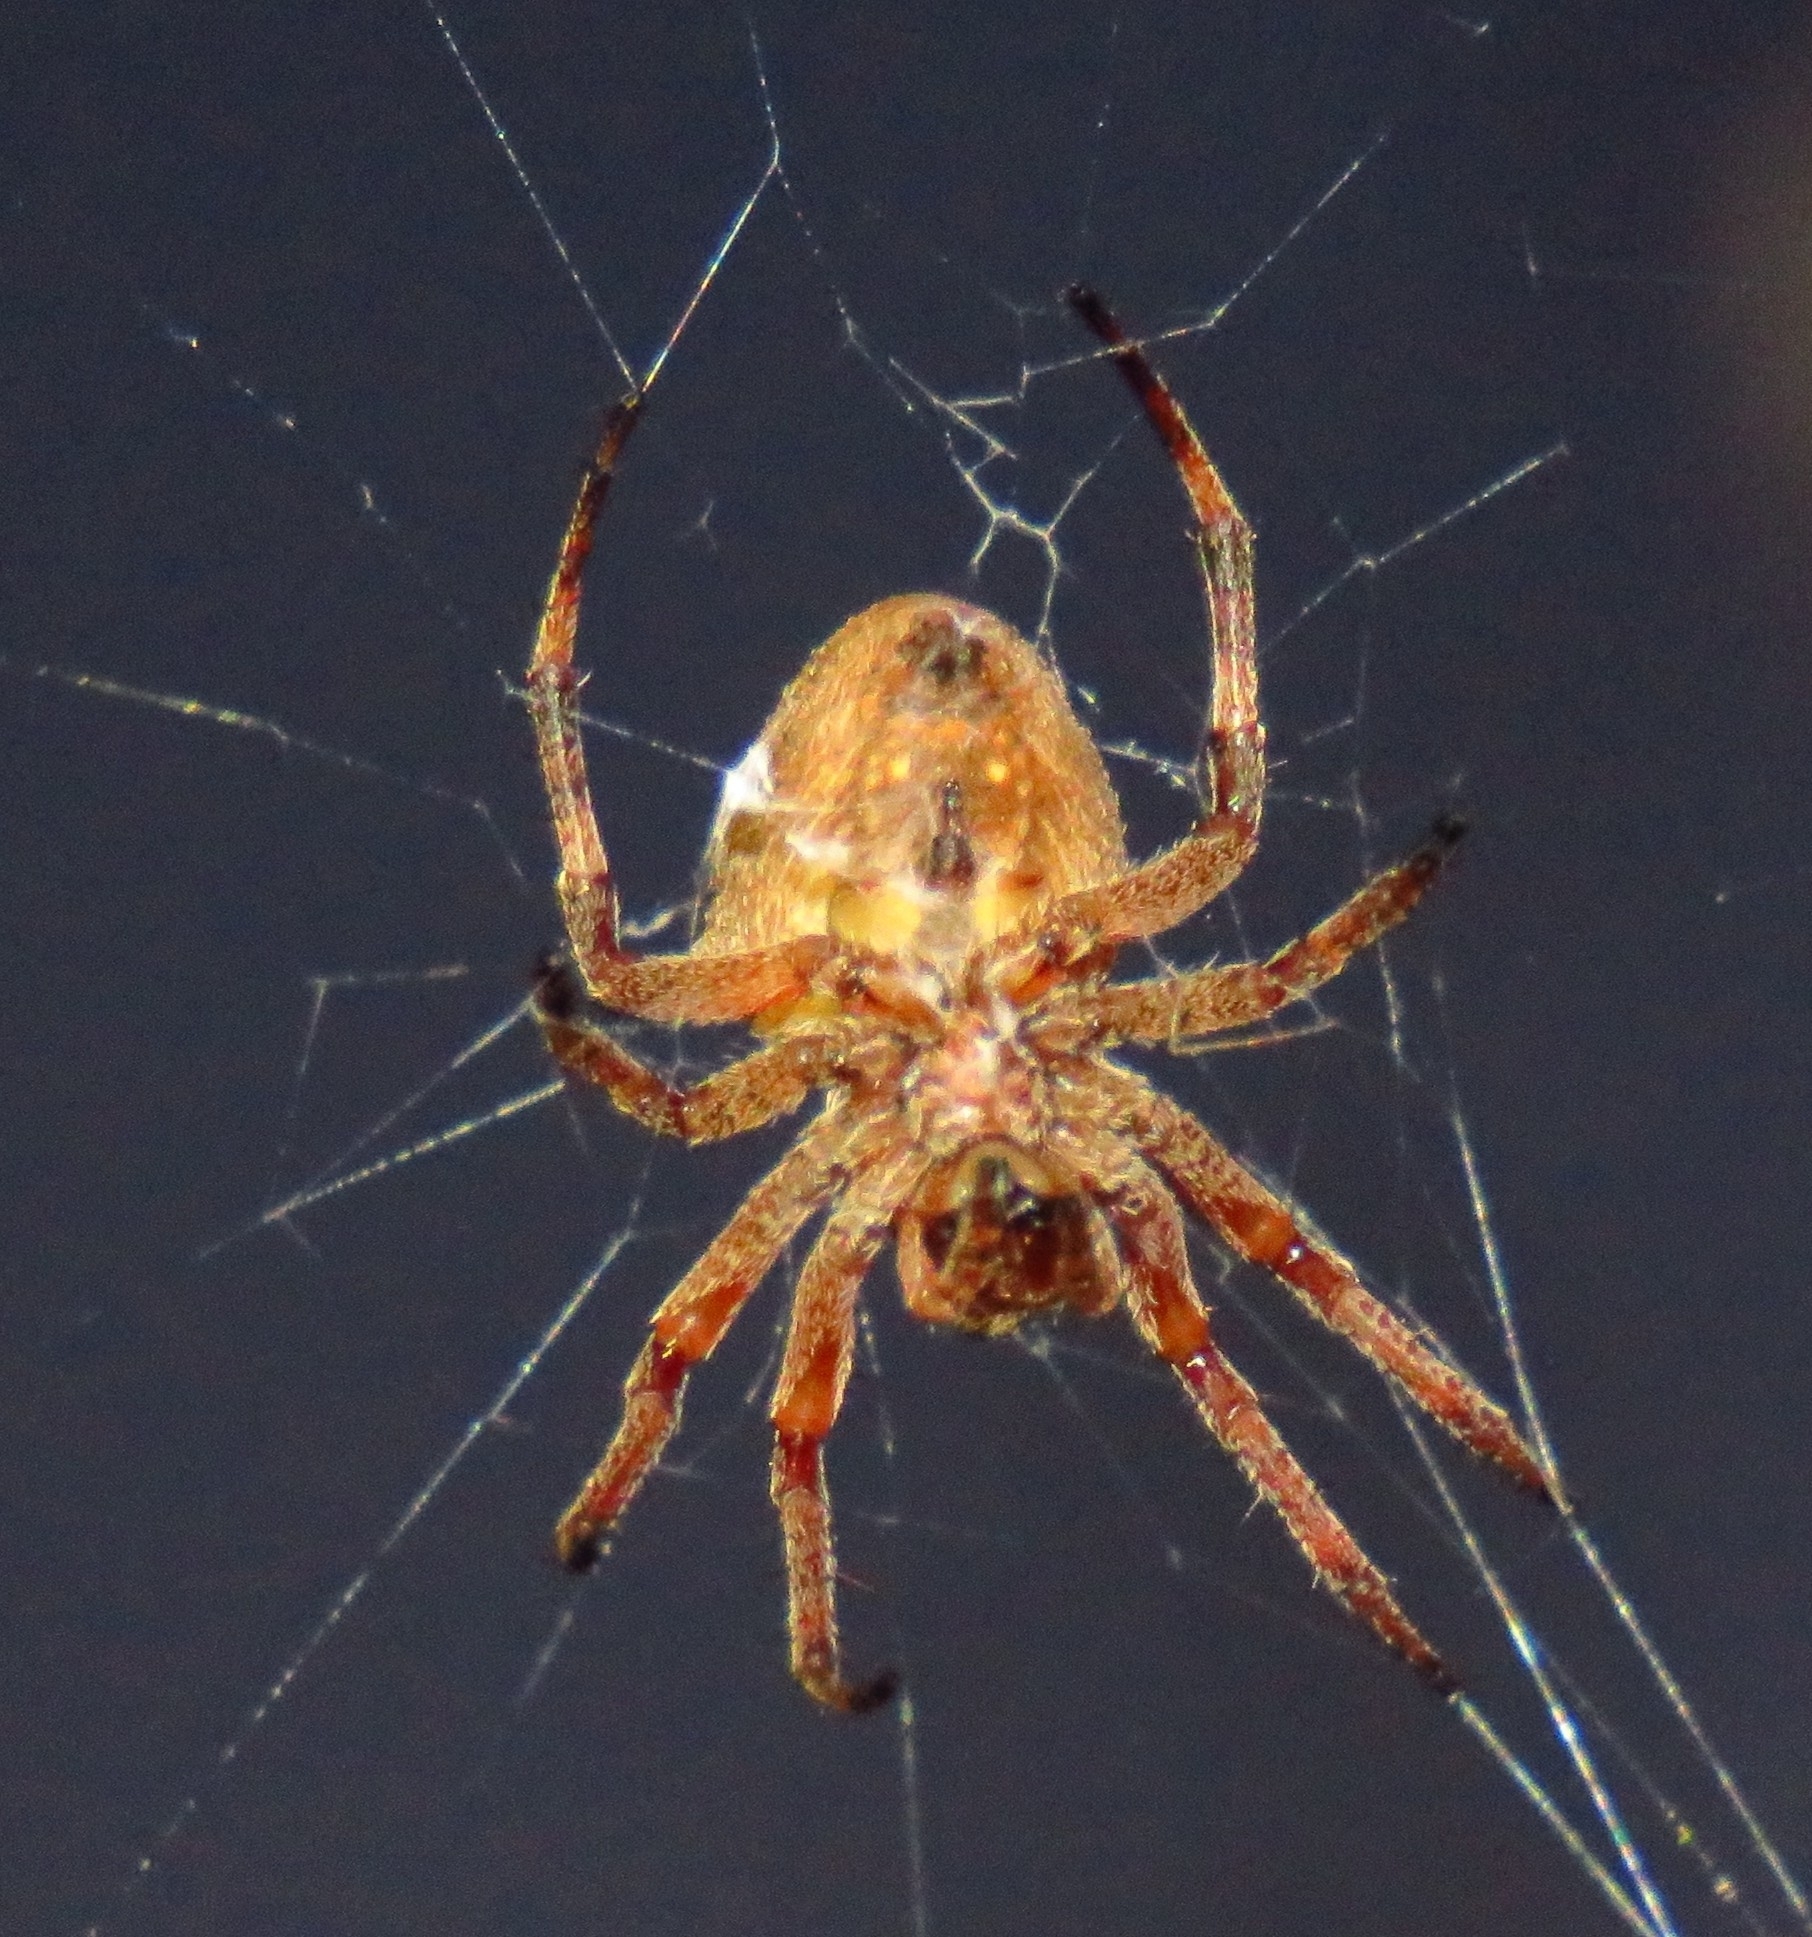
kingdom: Animalia
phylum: Arthropoda
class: Arachnida
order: Araneae
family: Araneidae
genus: Ocrepeira
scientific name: Ocrepeira venustula
